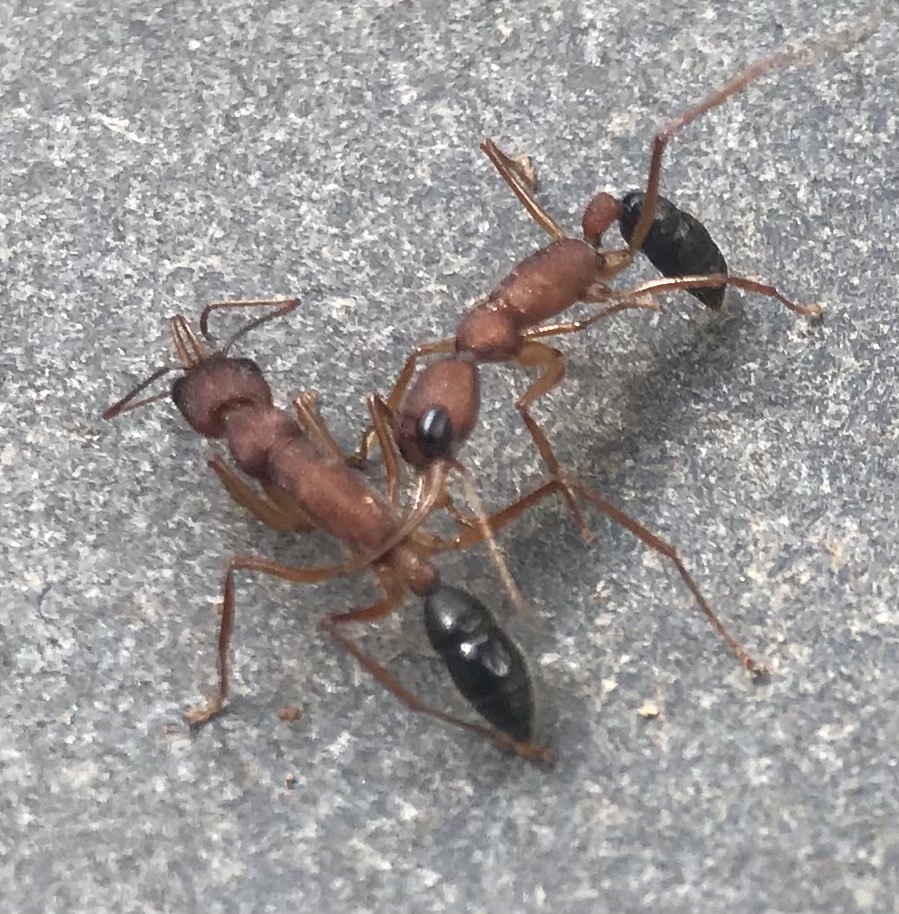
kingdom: Animalia
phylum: Arthropoda
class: Insecta
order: Hymenoptera
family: Formicidae
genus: Harpegnathos
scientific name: Harpegnathos saltator
